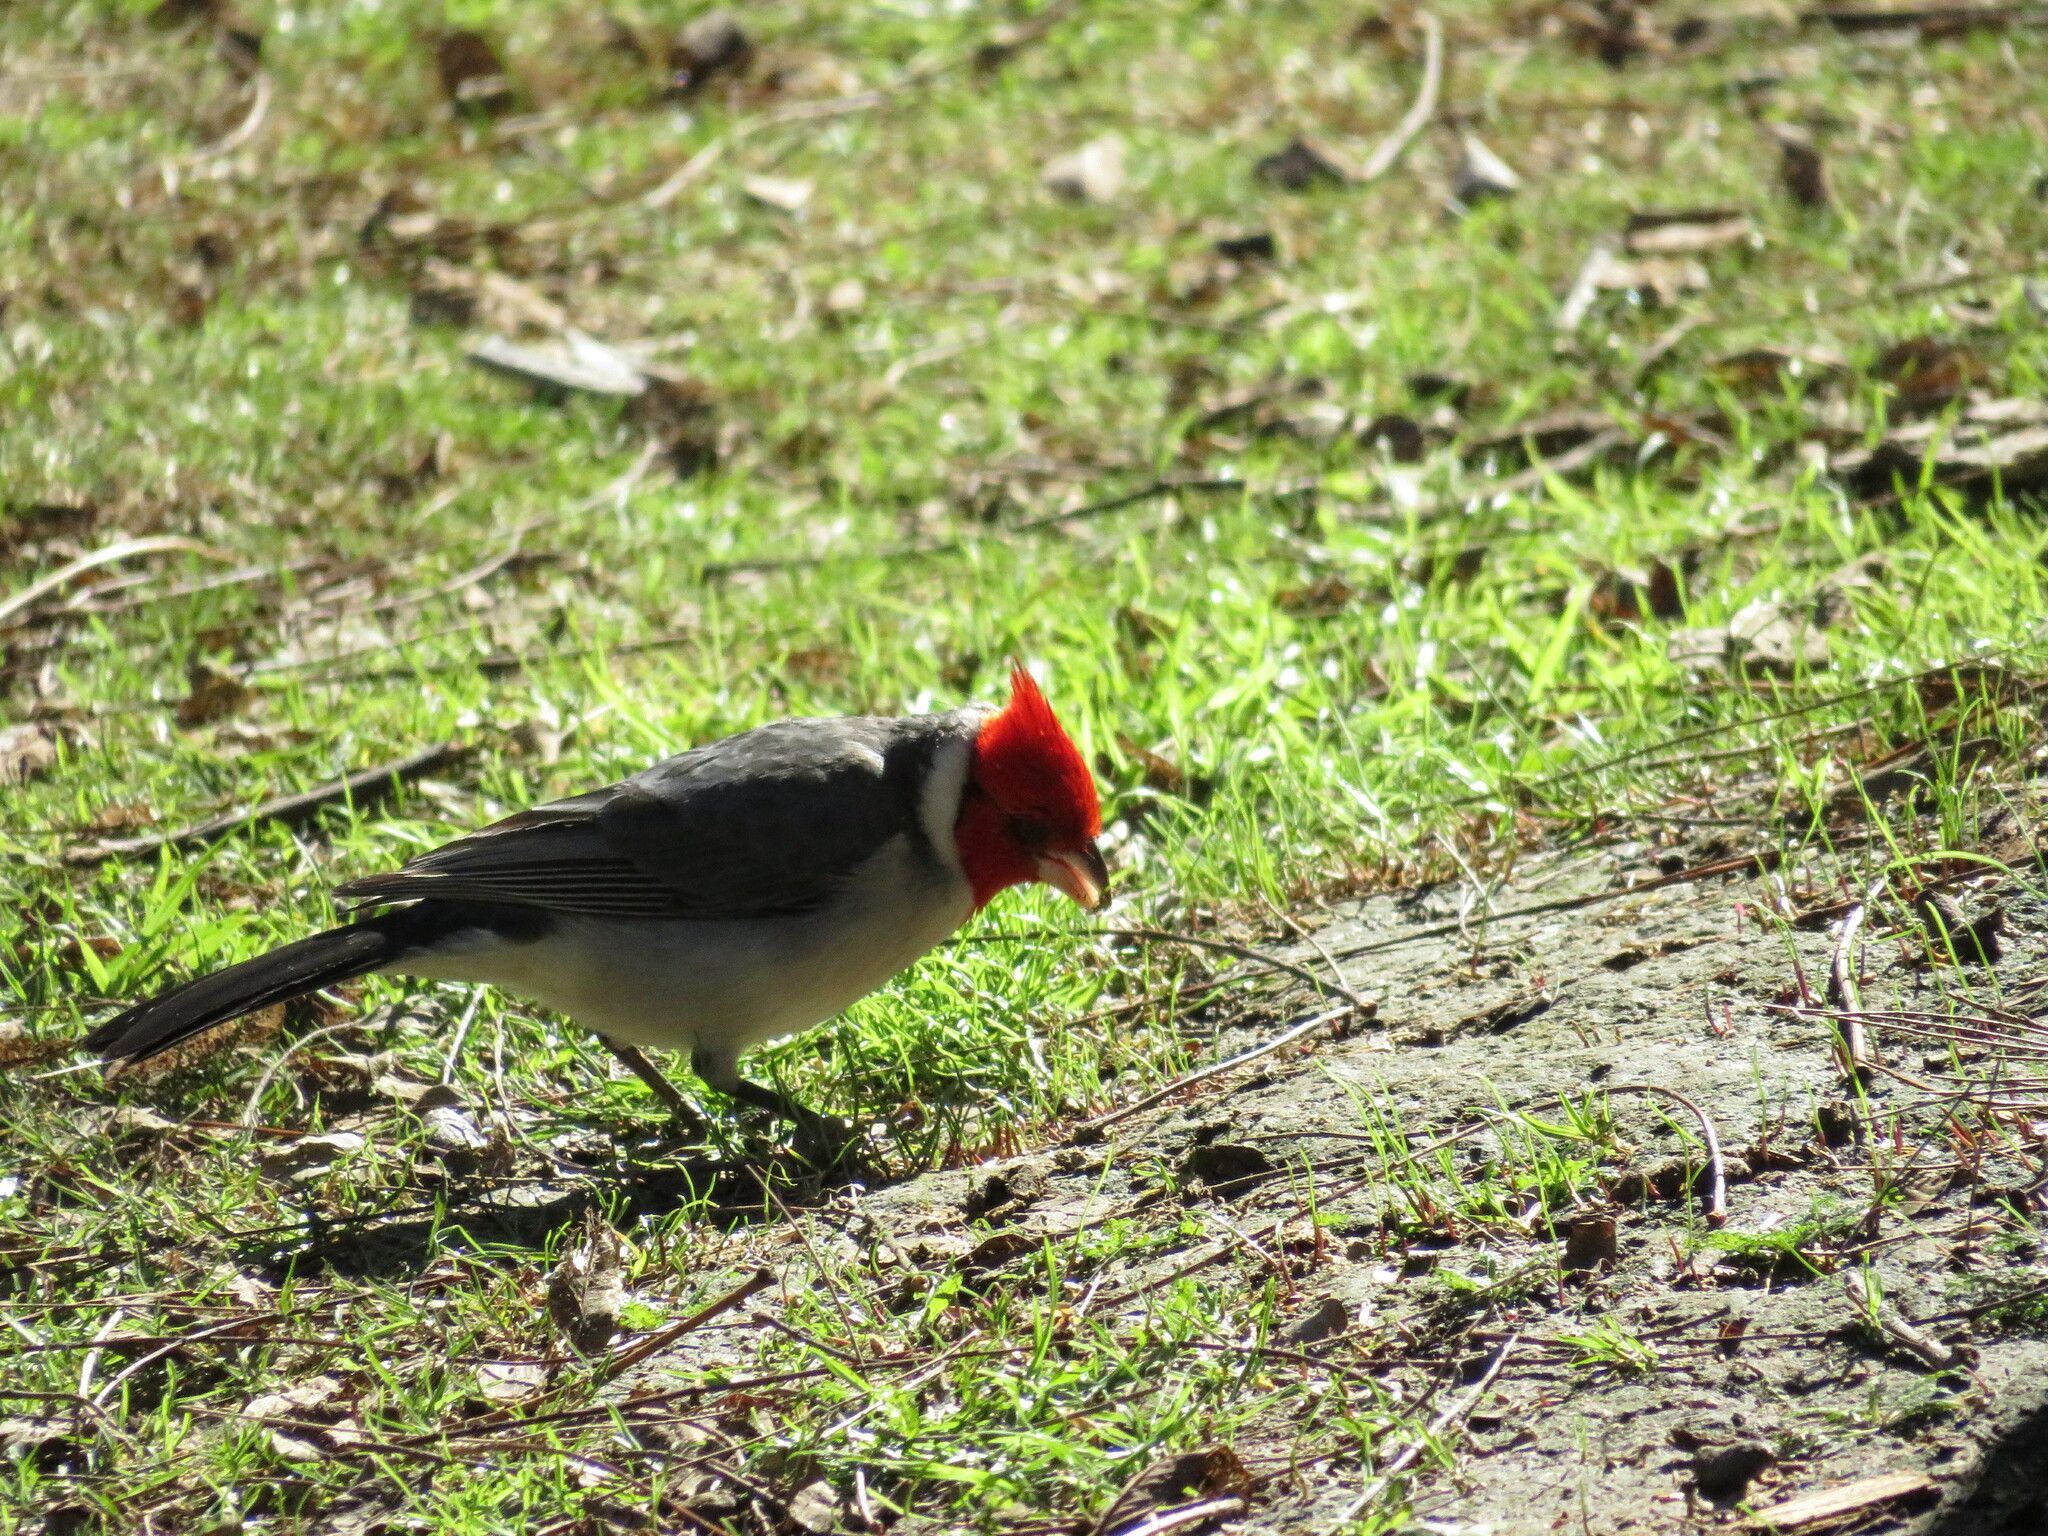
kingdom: Animalia
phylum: Chordata
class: Aves
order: Passeriformes
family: Thraupidae
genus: Paroaria
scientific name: Paroaria coronata
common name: Red-crested cardinal
